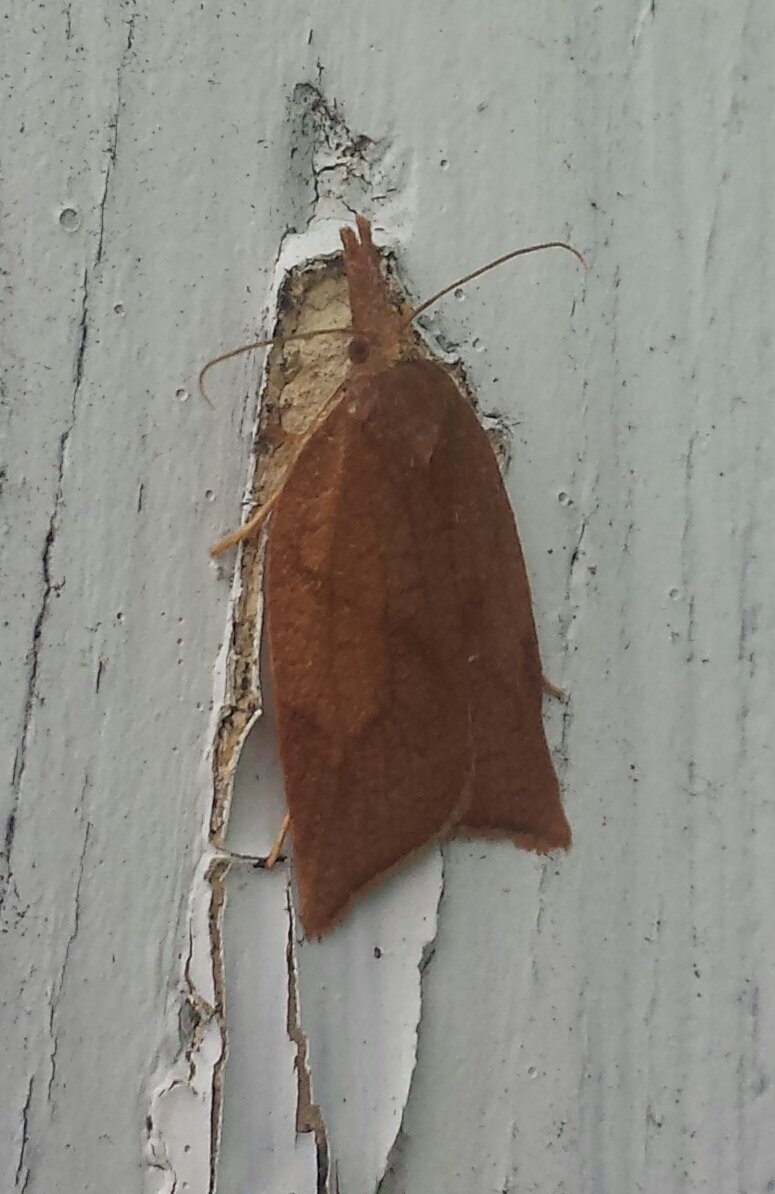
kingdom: Animalia
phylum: Arthropoda
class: Insecta
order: Lepidoptera
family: Tortricidae
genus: Sparganothis
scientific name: Sparganothis xanthoides
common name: Mosaic sparganothis moth
